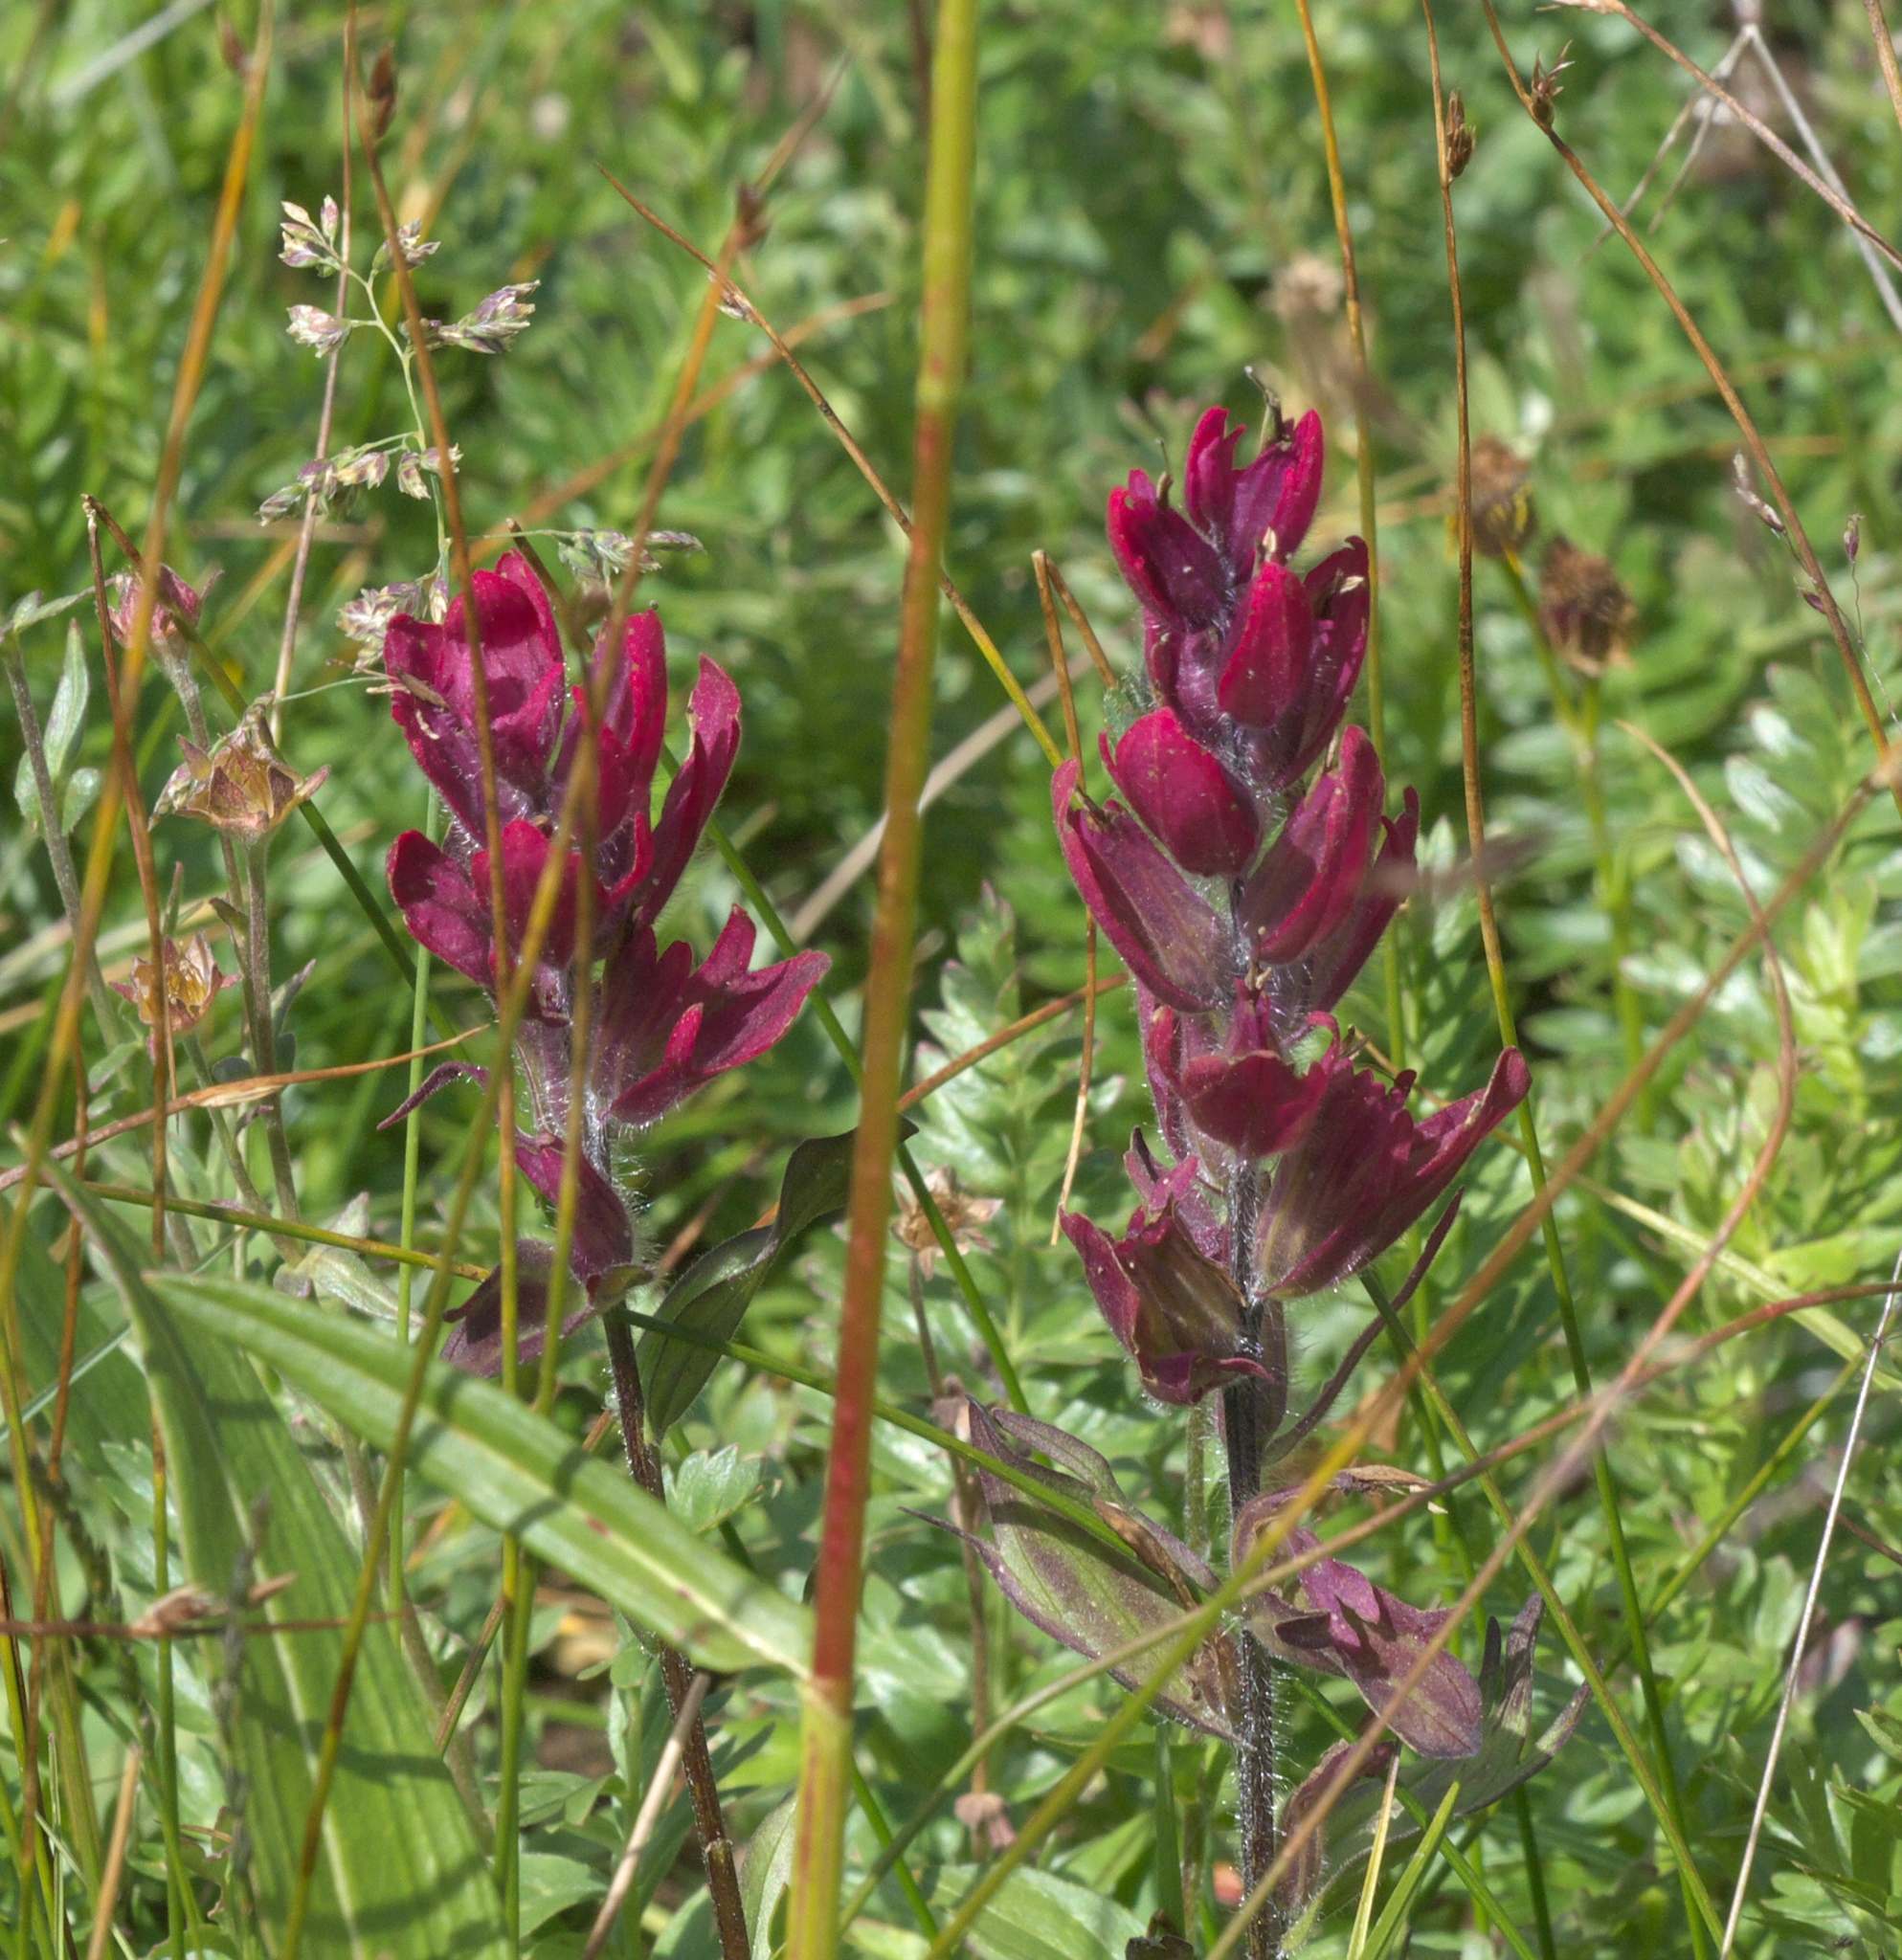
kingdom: Plantae
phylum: Tracheophyta
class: Magnoliopsida
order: Lamiales
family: Orobanchaceae
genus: Castilleja
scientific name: Castilleja rhexifolia
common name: Rocky mountain paintbrush
